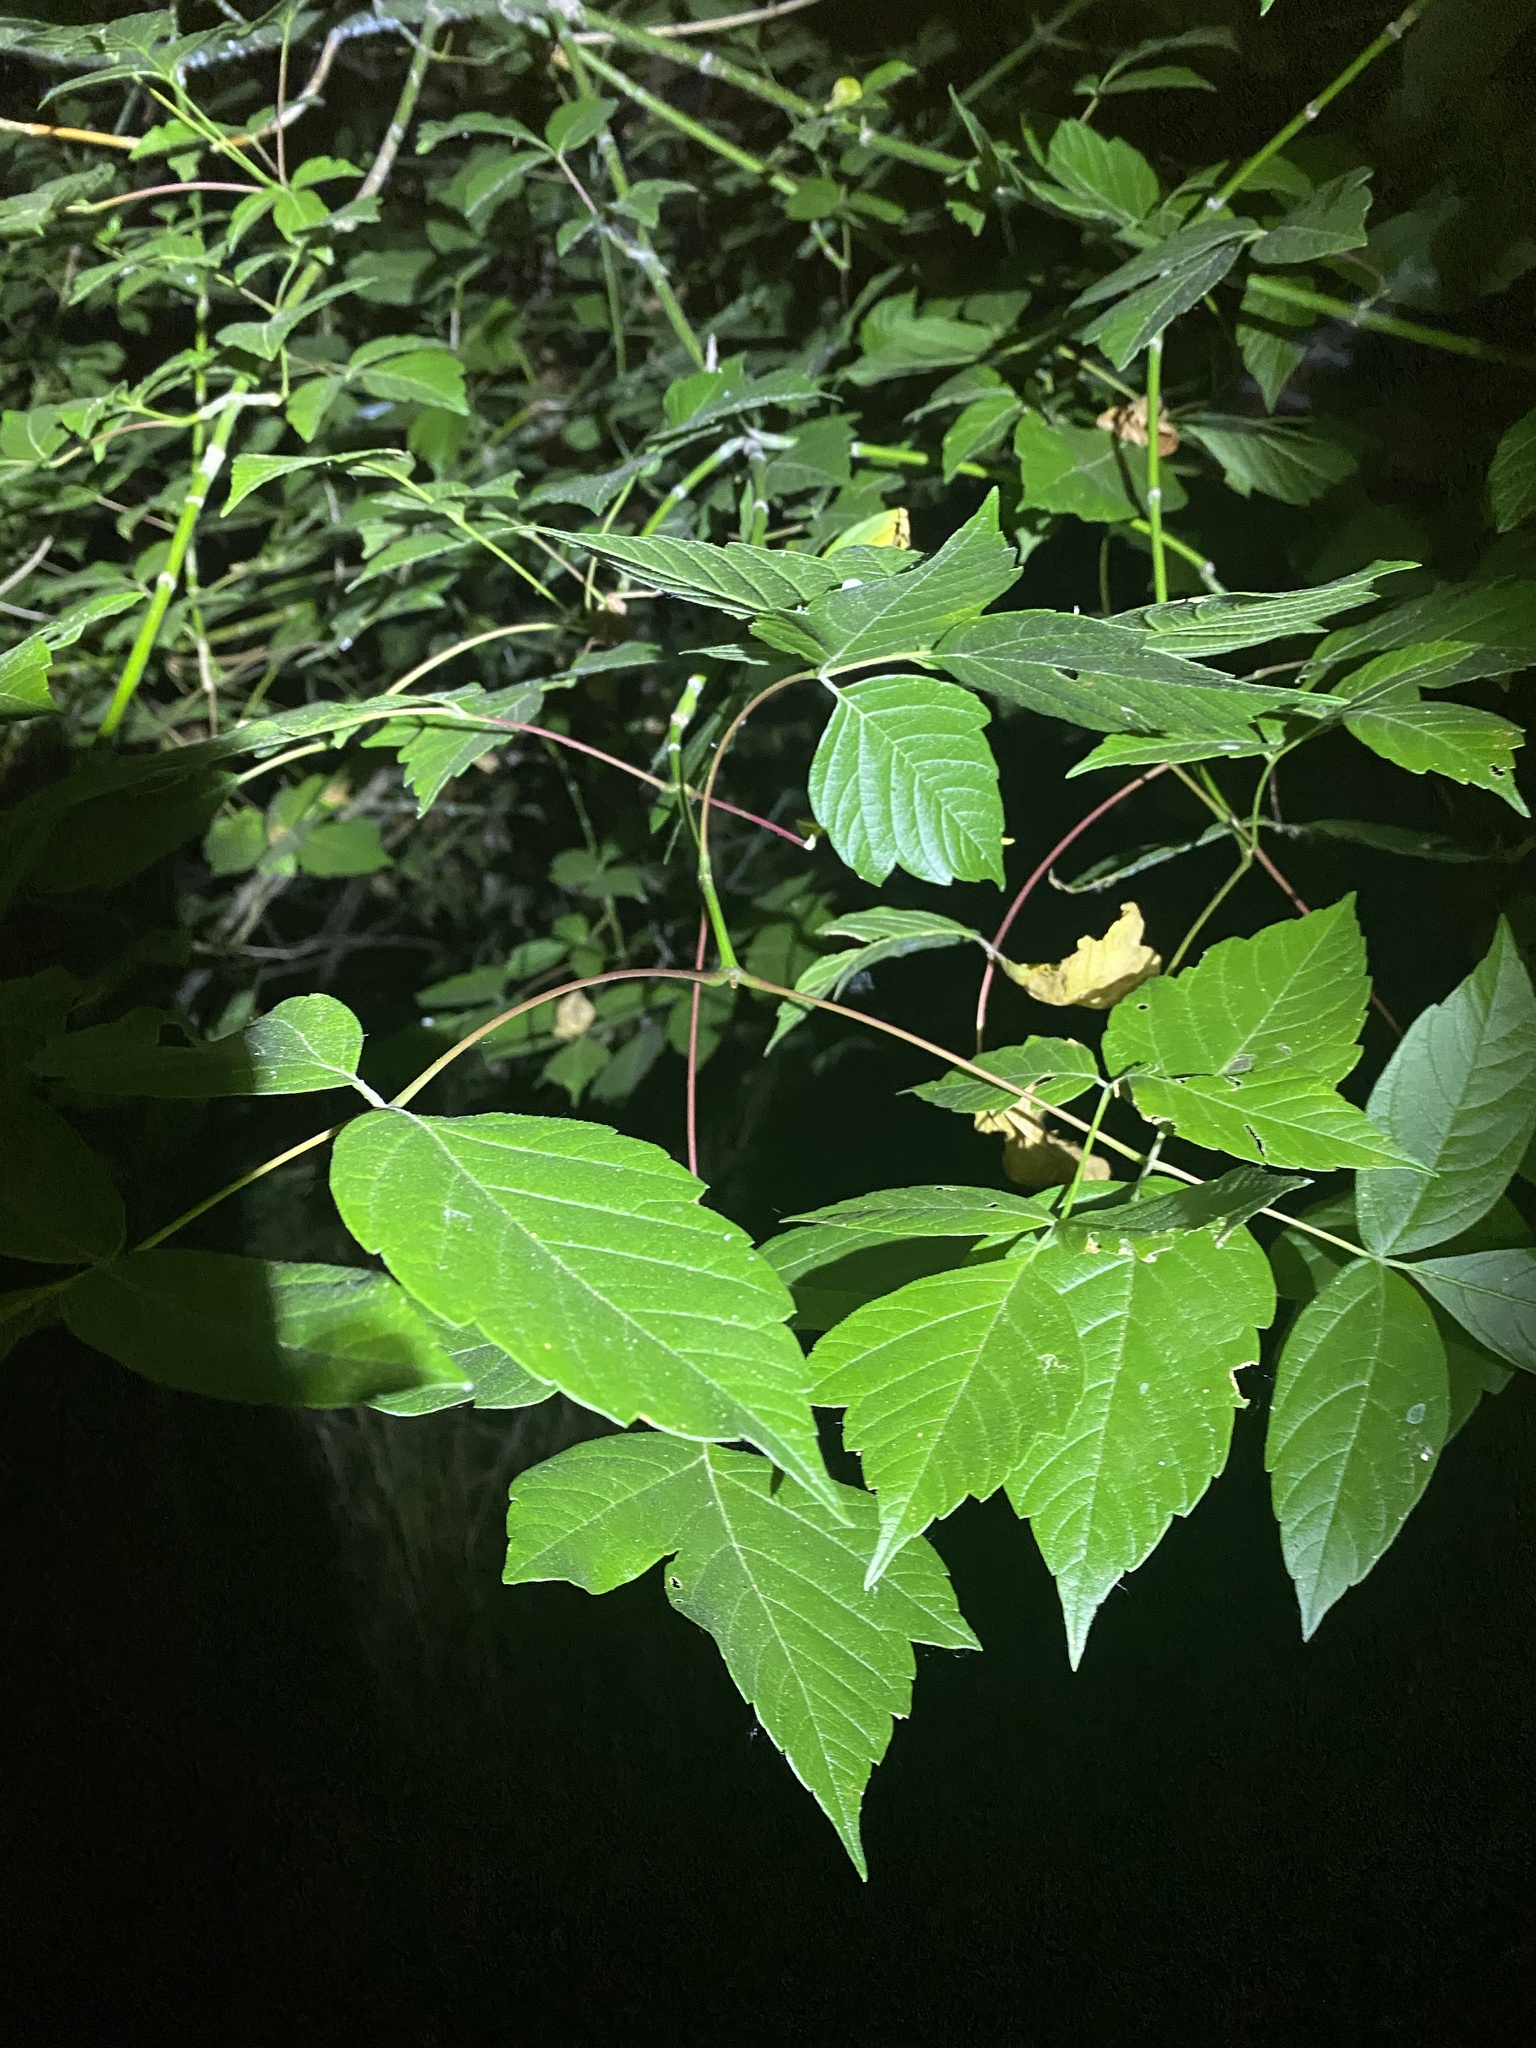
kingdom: Plantae
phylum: Tracheophyta
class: Magnoliopsida
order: Sapindales
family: Sapindaceae
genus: Acer
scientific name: Acer negundo
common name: Ashleaf maple
